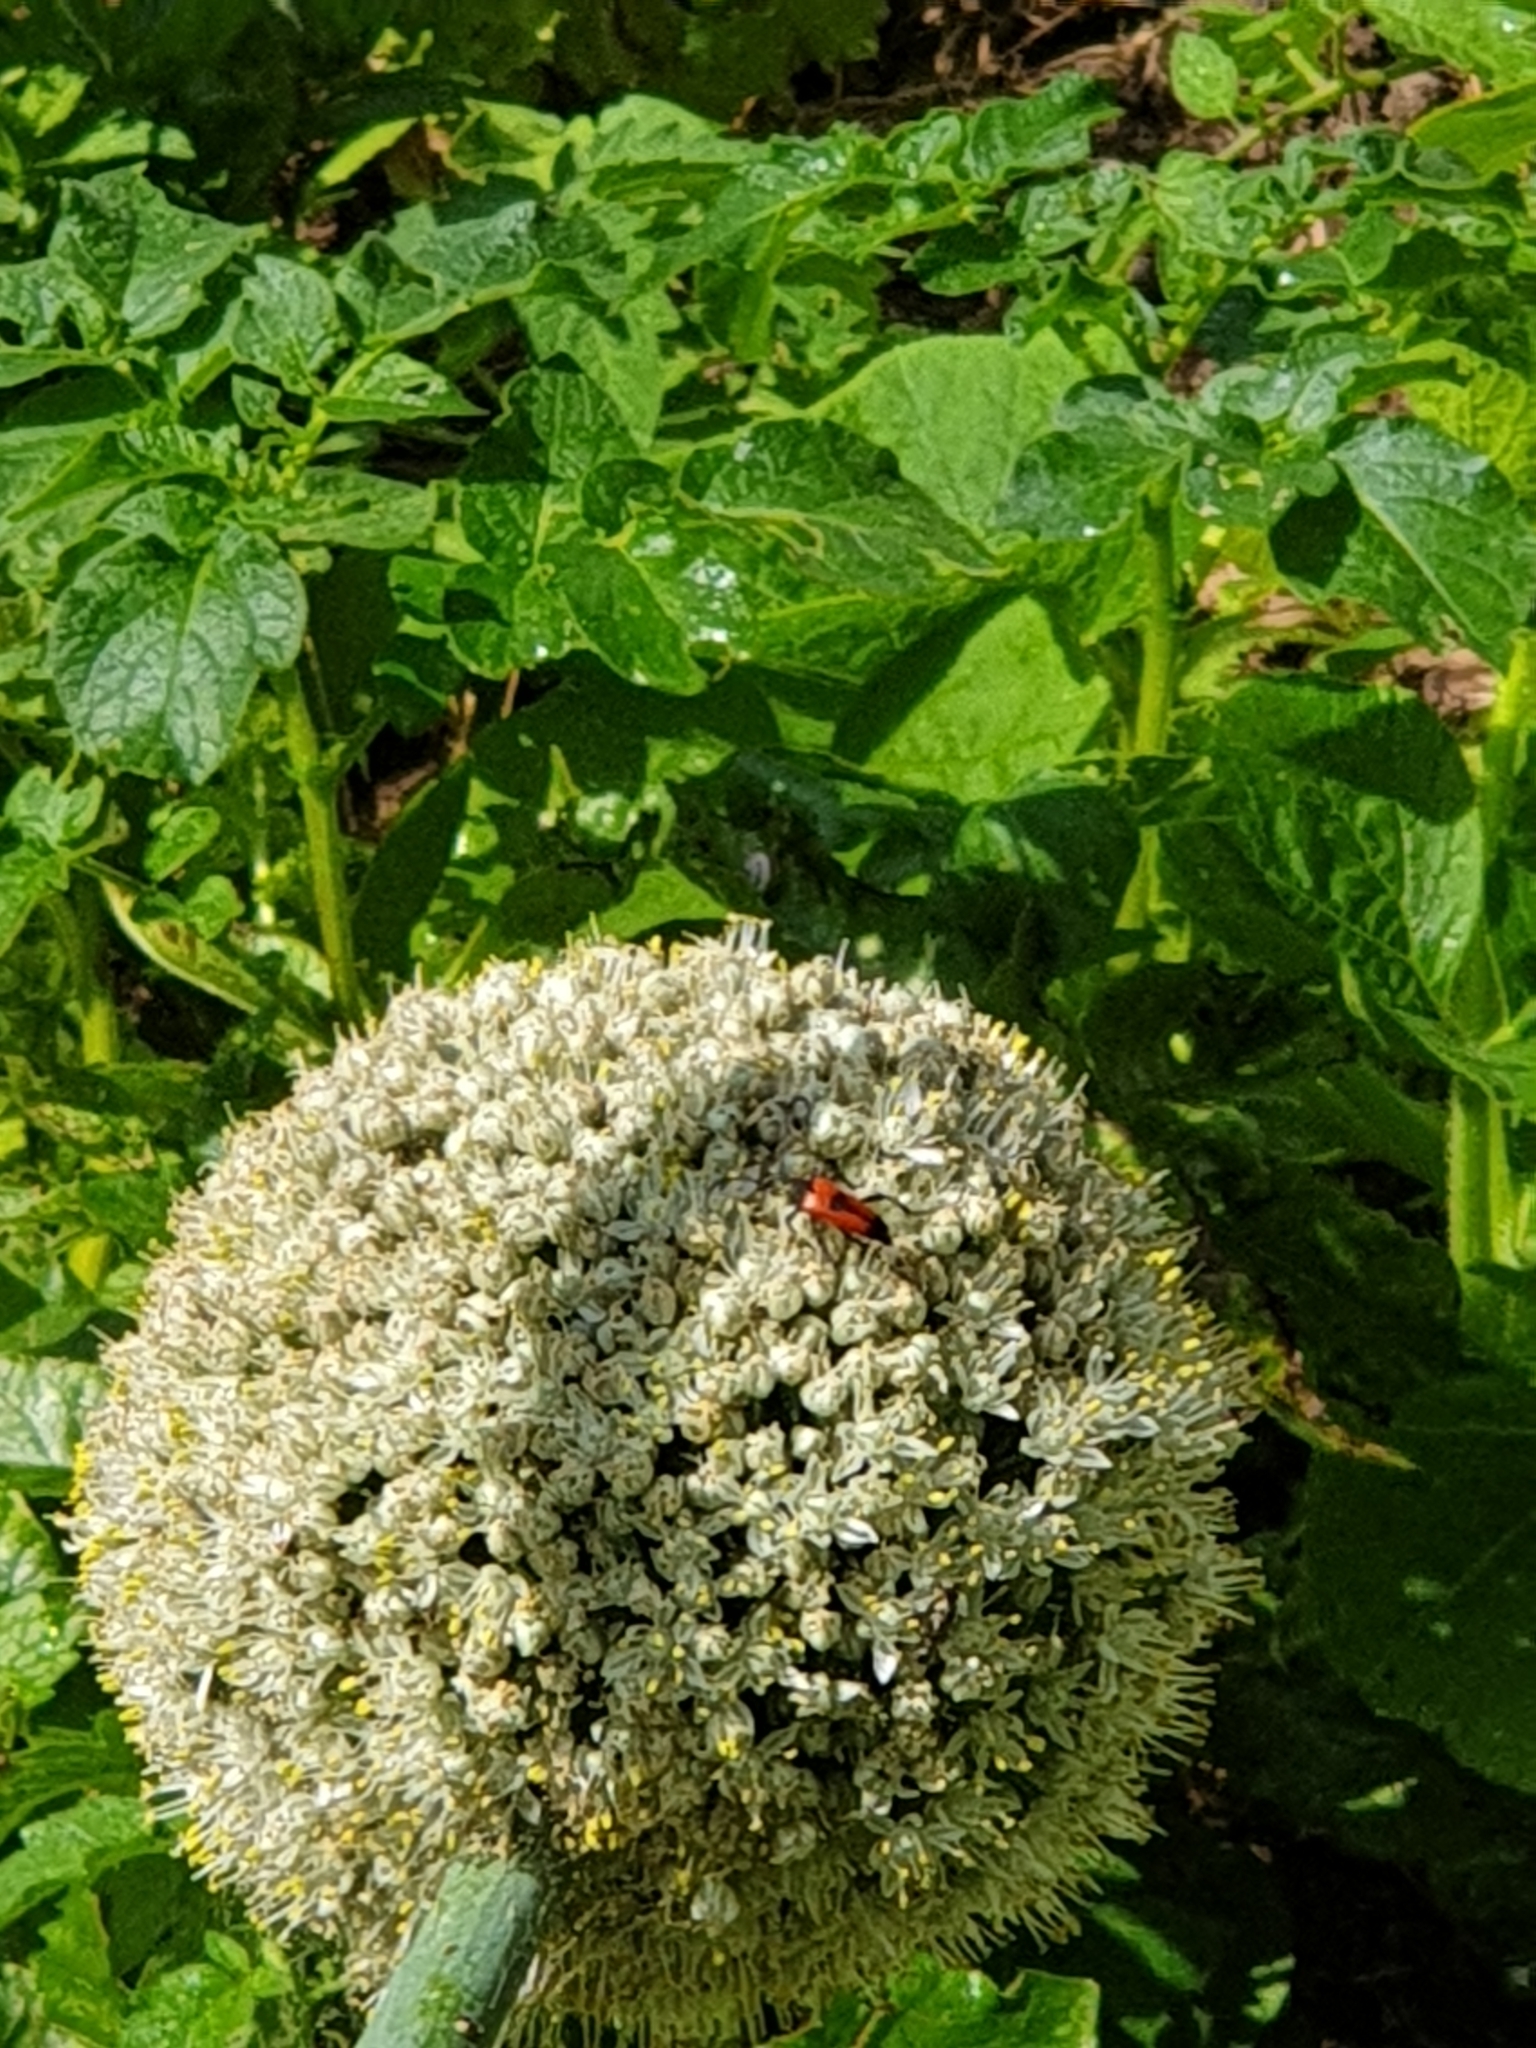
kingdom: Animalia
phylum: Arthropoda
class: Insecta
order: Coleoptera
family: Cerambycidae
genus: Stictoleptura
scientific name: Stictoleptura cordigera
